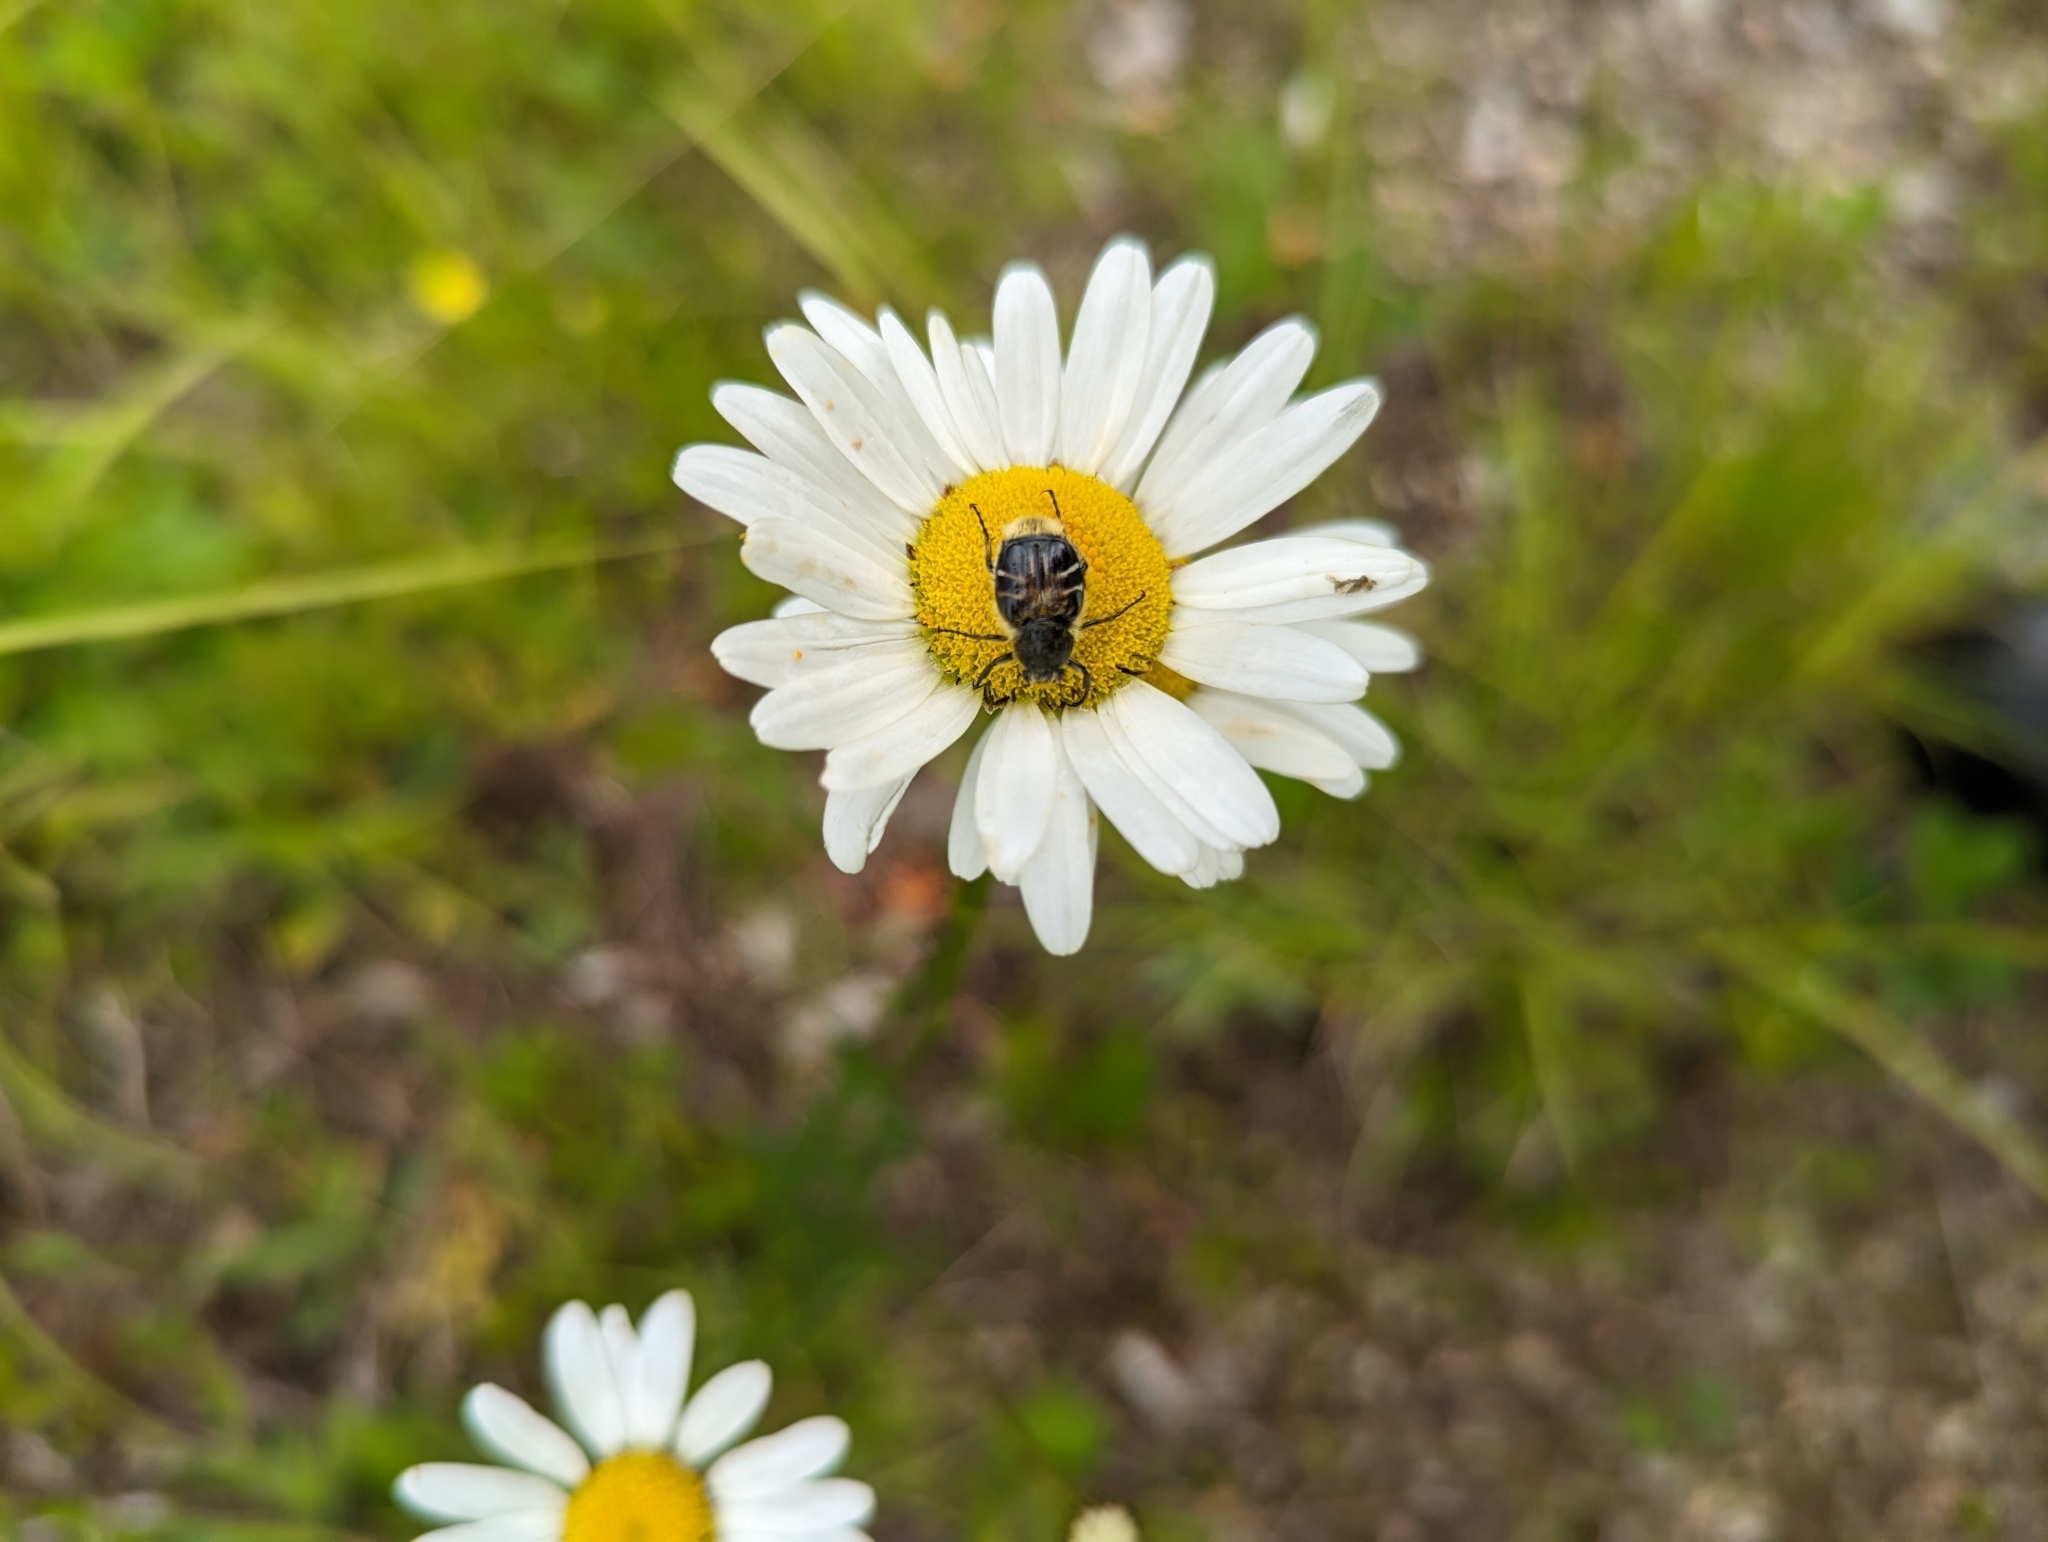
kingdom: Animalia
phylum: Arthropoda
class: Insecta
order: Coleoptera
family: Scarabaeidae
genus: Trichiotinus
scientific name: Trichiotinus assimilis
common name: Bee-mimic beetle
